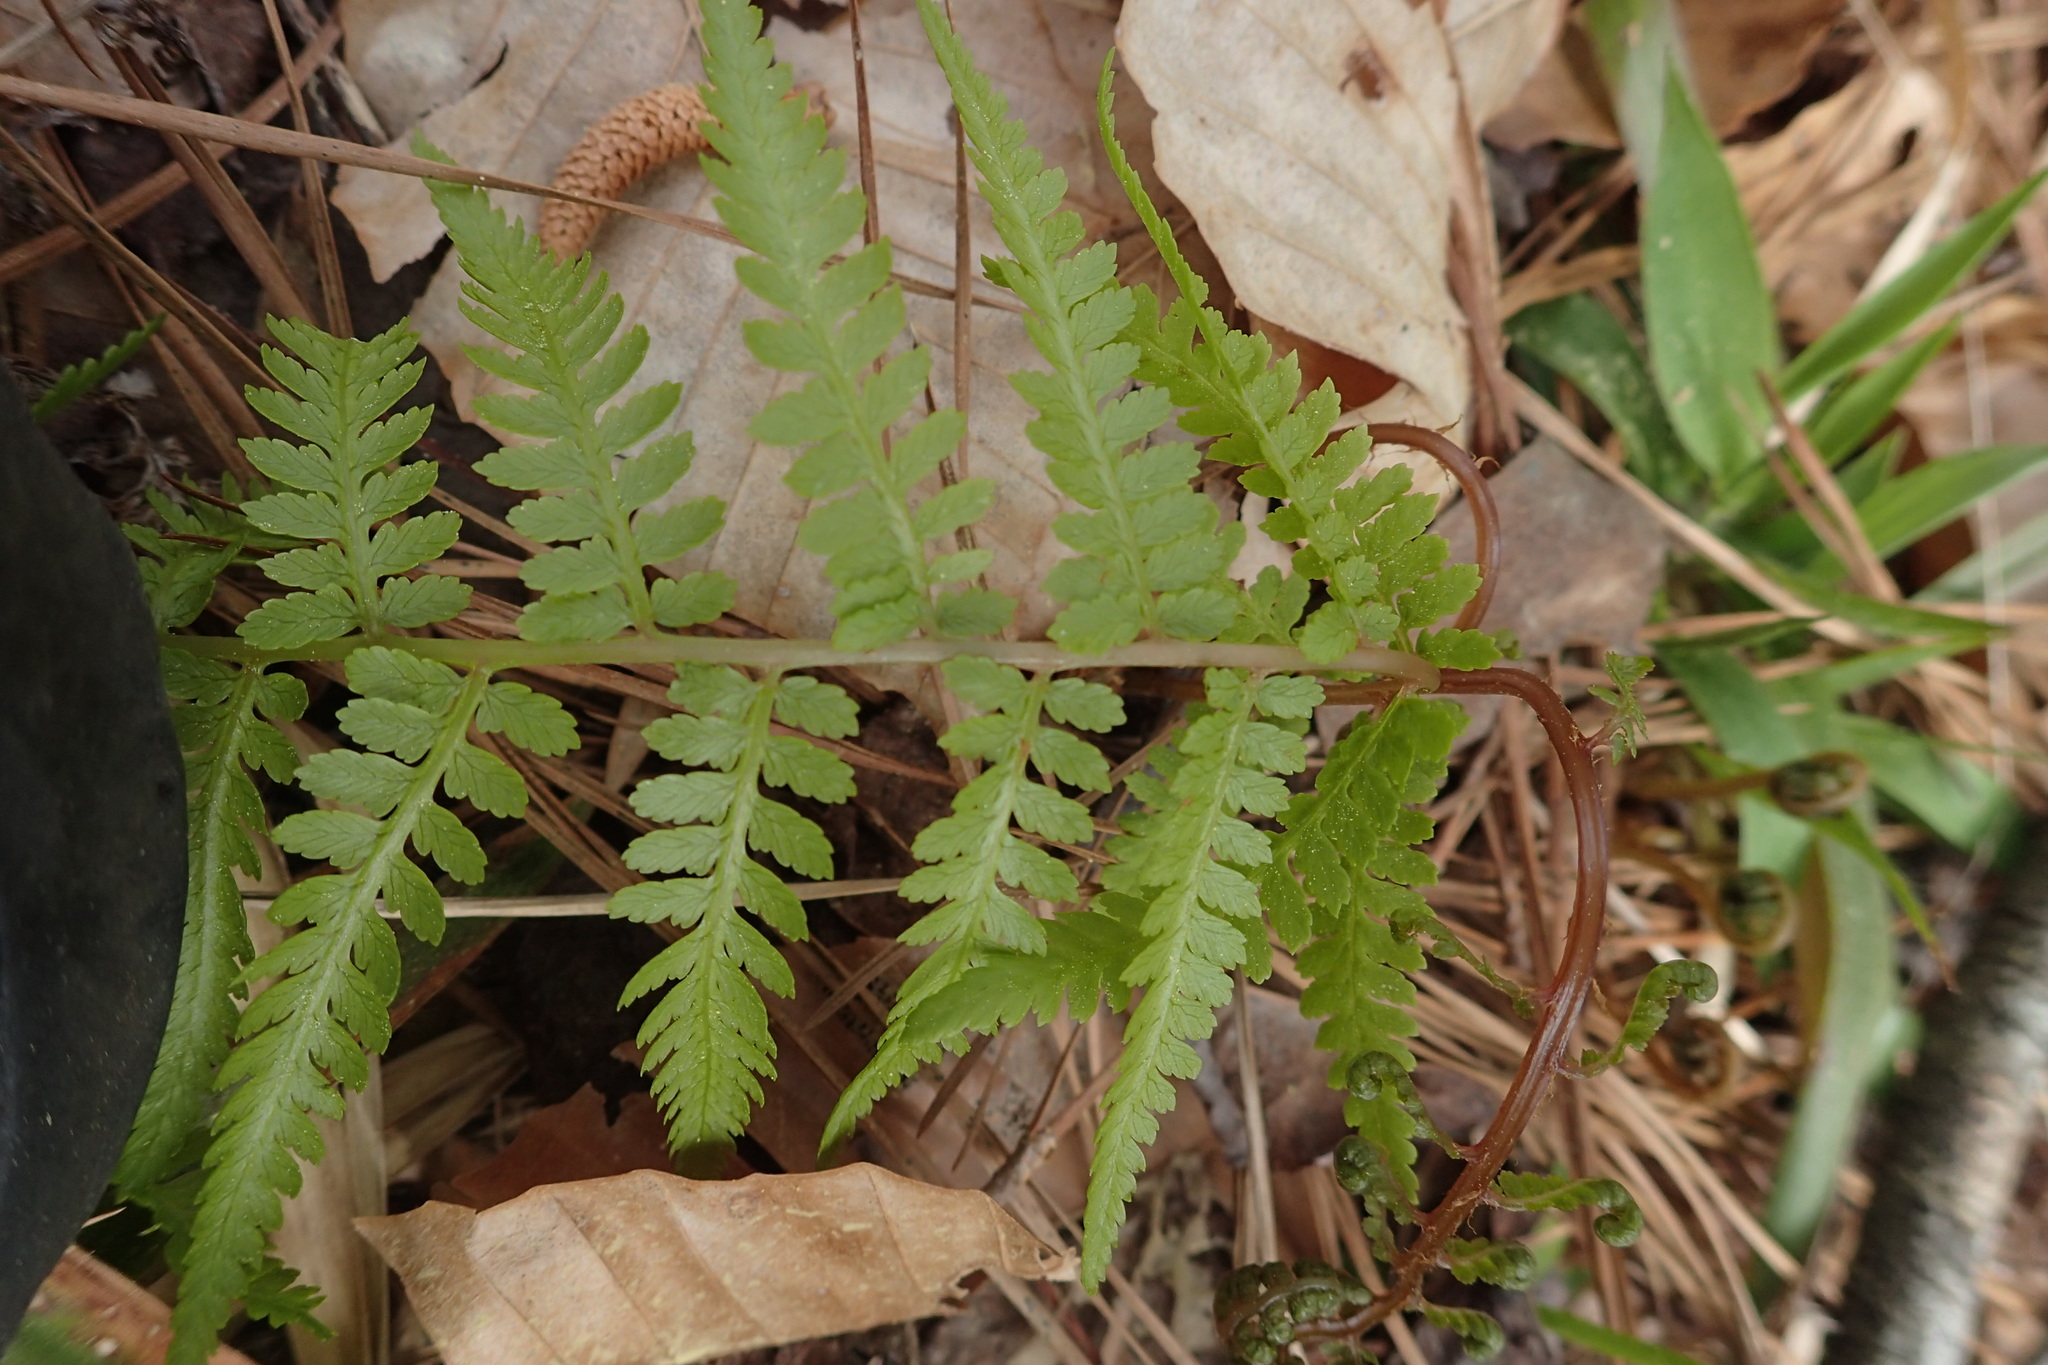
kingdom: Plantae
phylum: Tracheophyta
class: Polypodiopsida
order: Polypodiales
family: Athyriaceae
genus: Athyrium
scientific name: Athyrium asplenioides
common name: Southern lady fern
